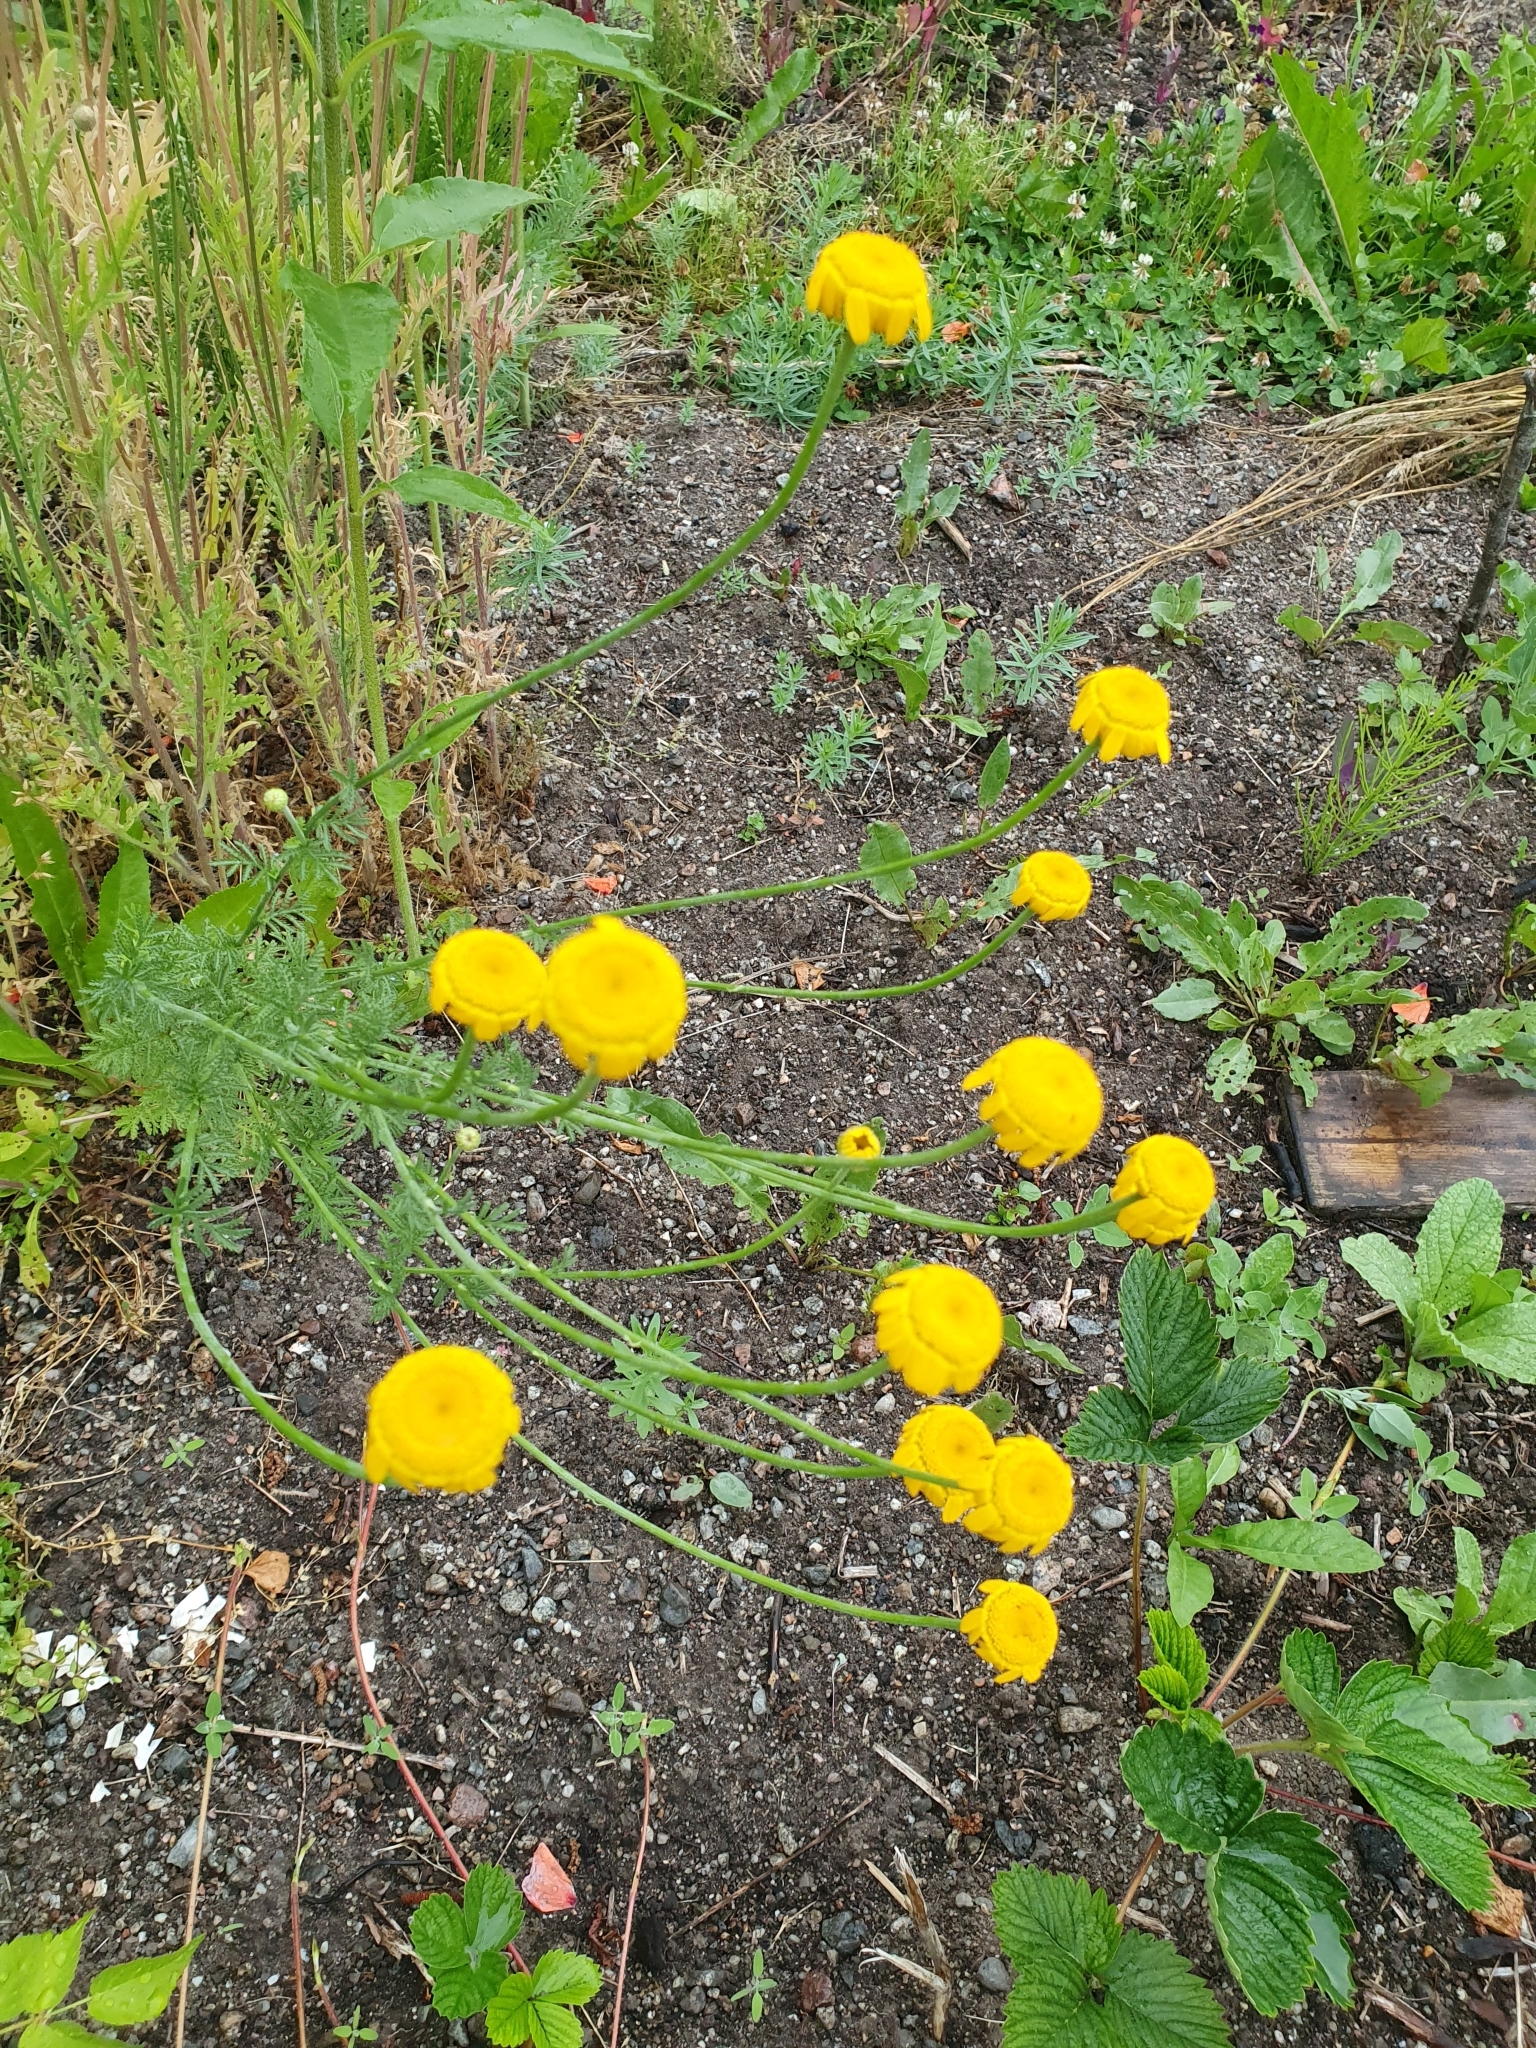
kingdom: Plantae
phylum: Tracheophyta
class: Magnoliopsida
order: Asterales
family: Asteraceae
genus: Cota
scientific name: Cota tinctoria
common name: Golden chamomile
